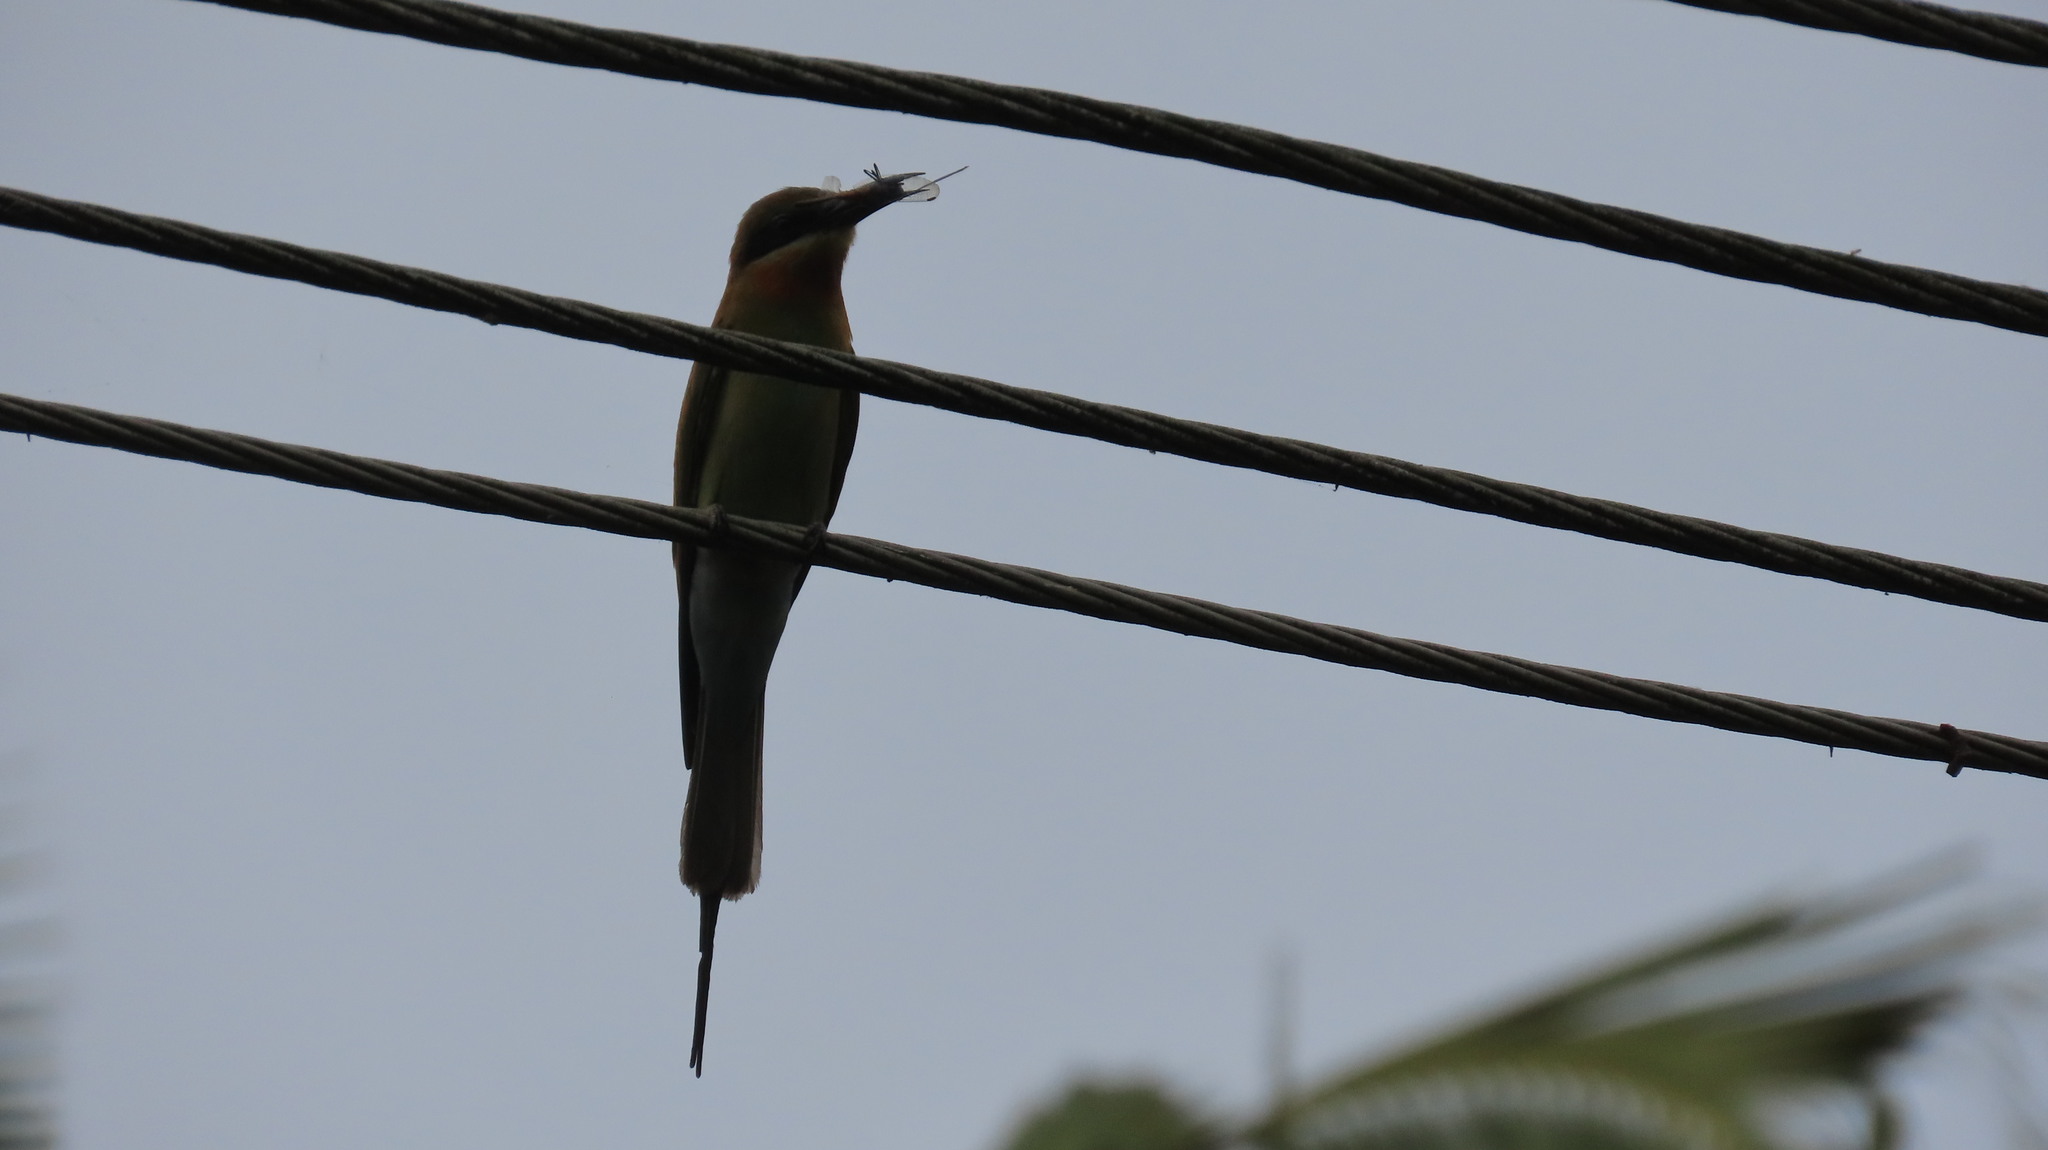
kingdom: Animalia
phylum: Chordata
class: Aves
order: Coraciiformes
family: Meropidae
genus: Merops
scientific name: Merops philippinus
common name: Blue-tailed bee-eater
